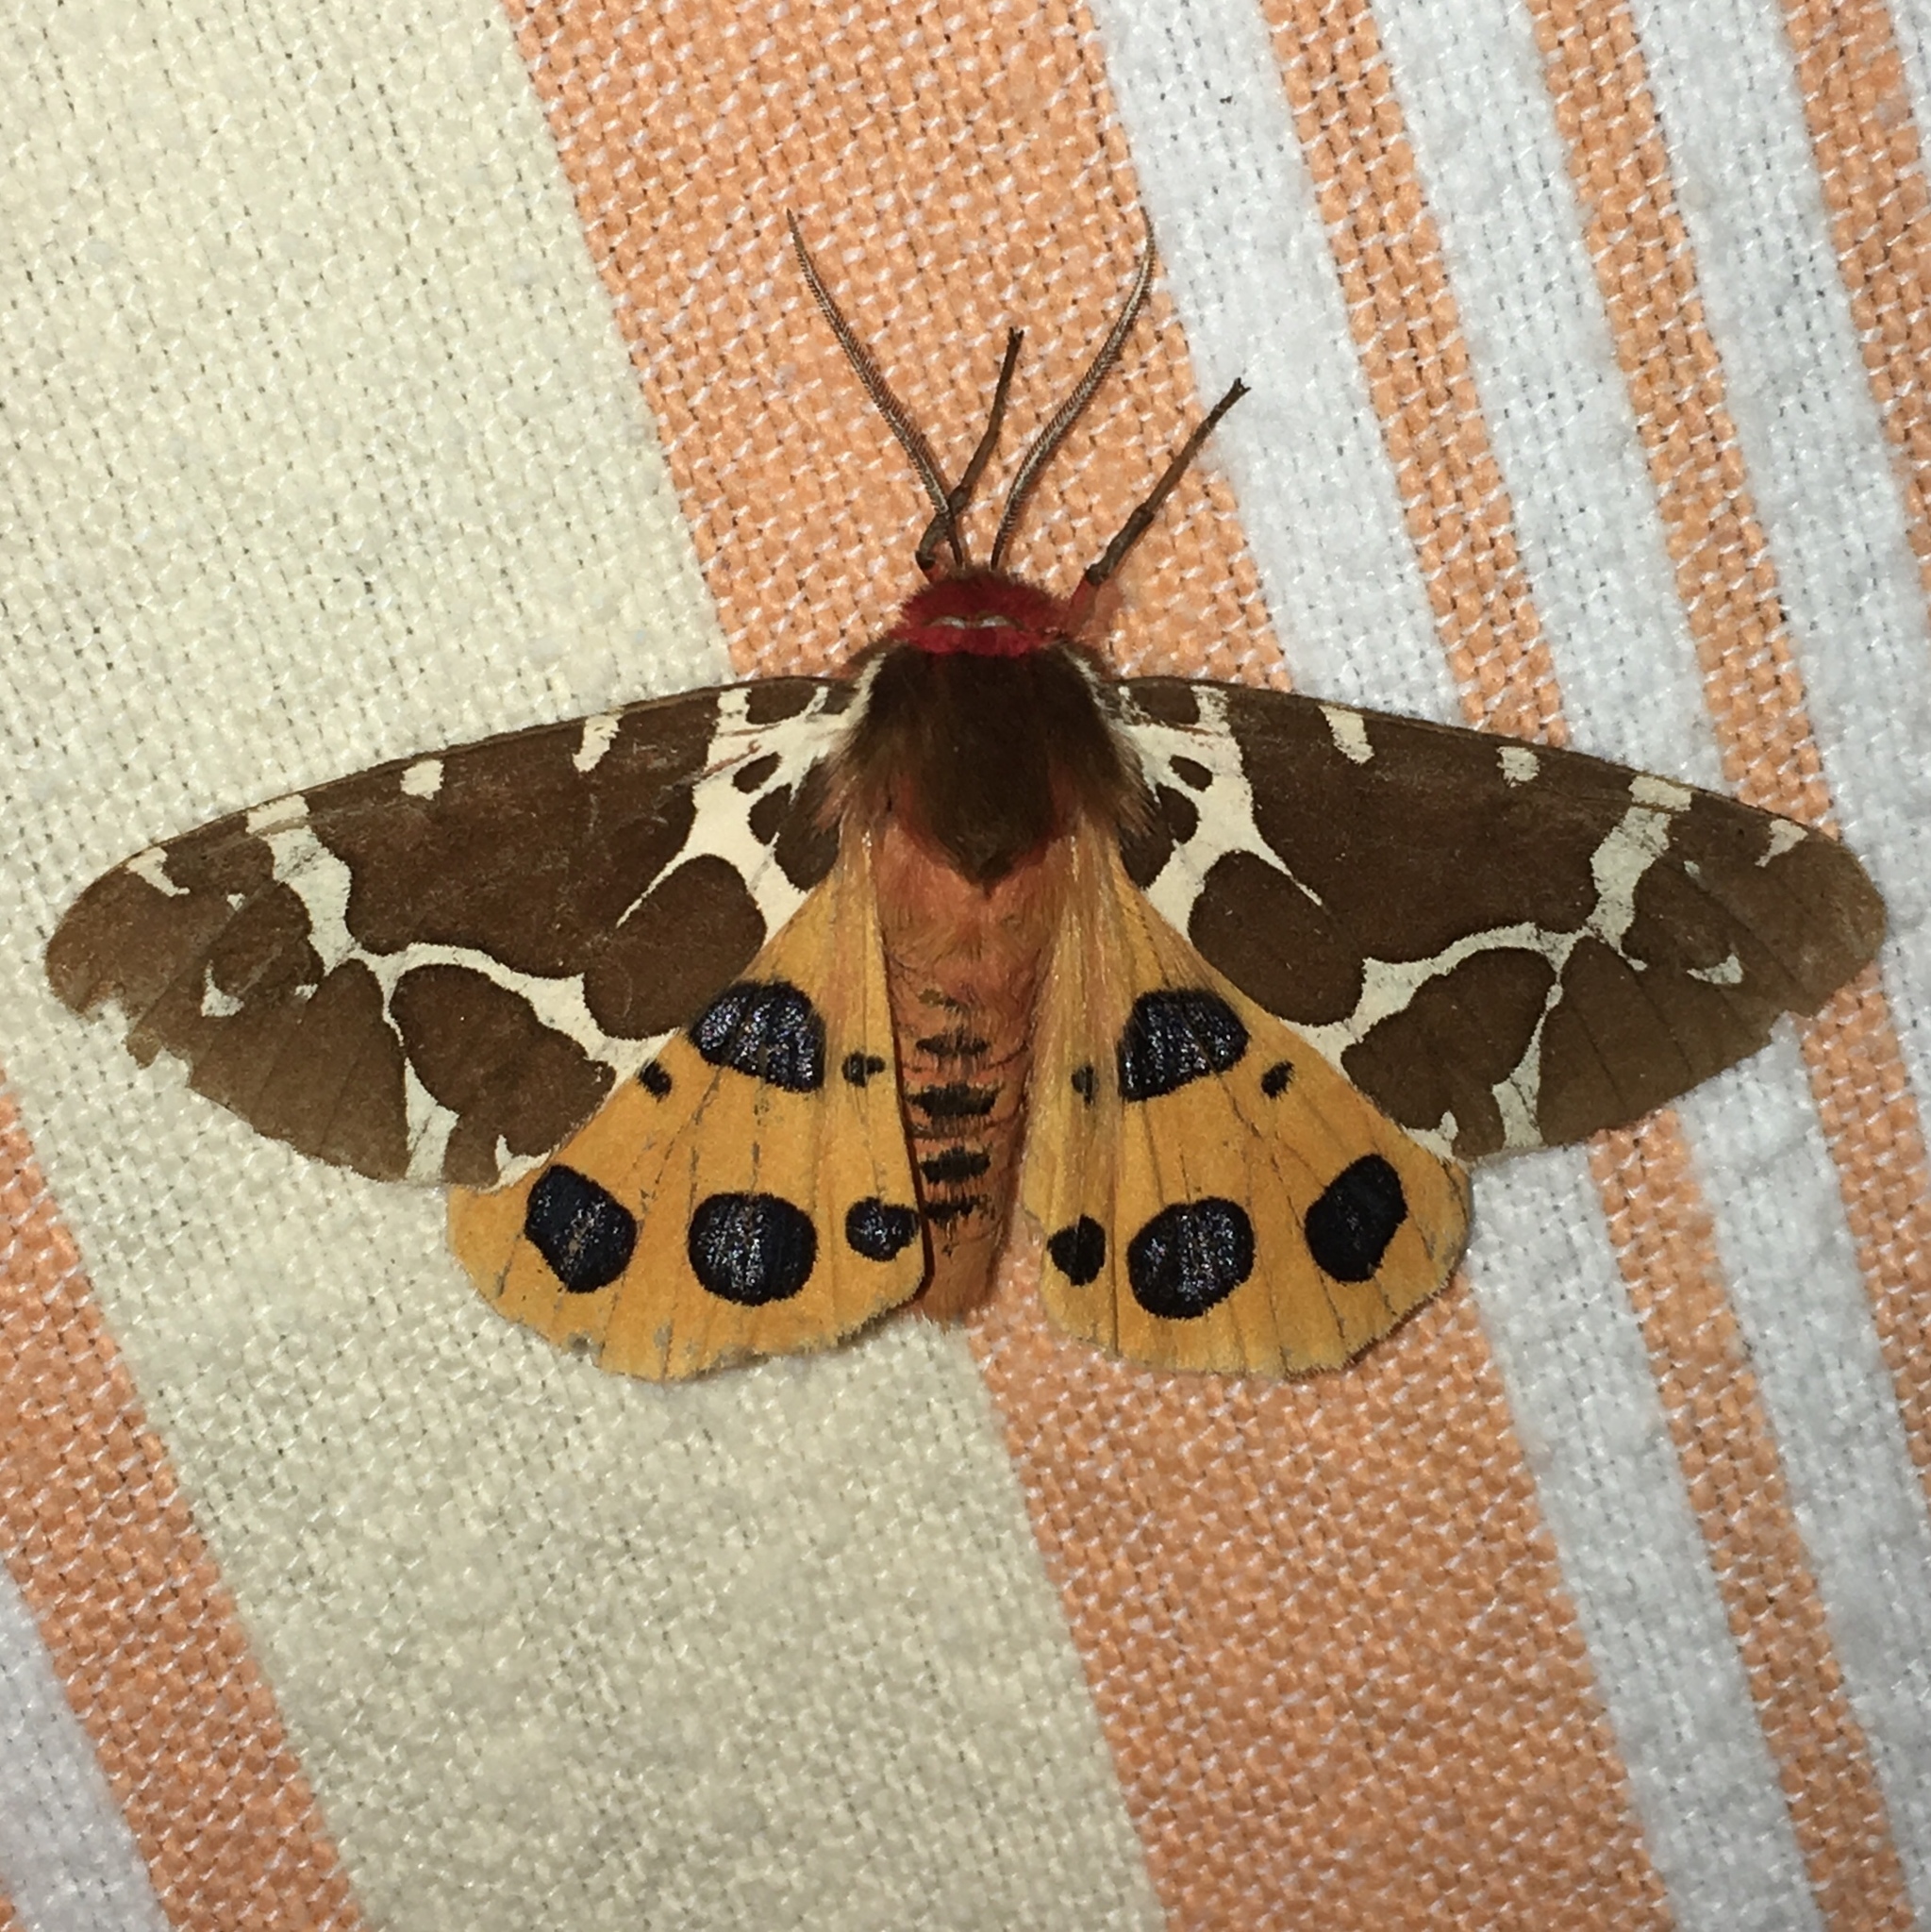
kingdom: Animalia
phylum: Arthropoda
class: Insecta
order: Lepidoptera
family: Erebidae
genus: Arctia
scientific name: Arctia caja
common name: Garden tiger
